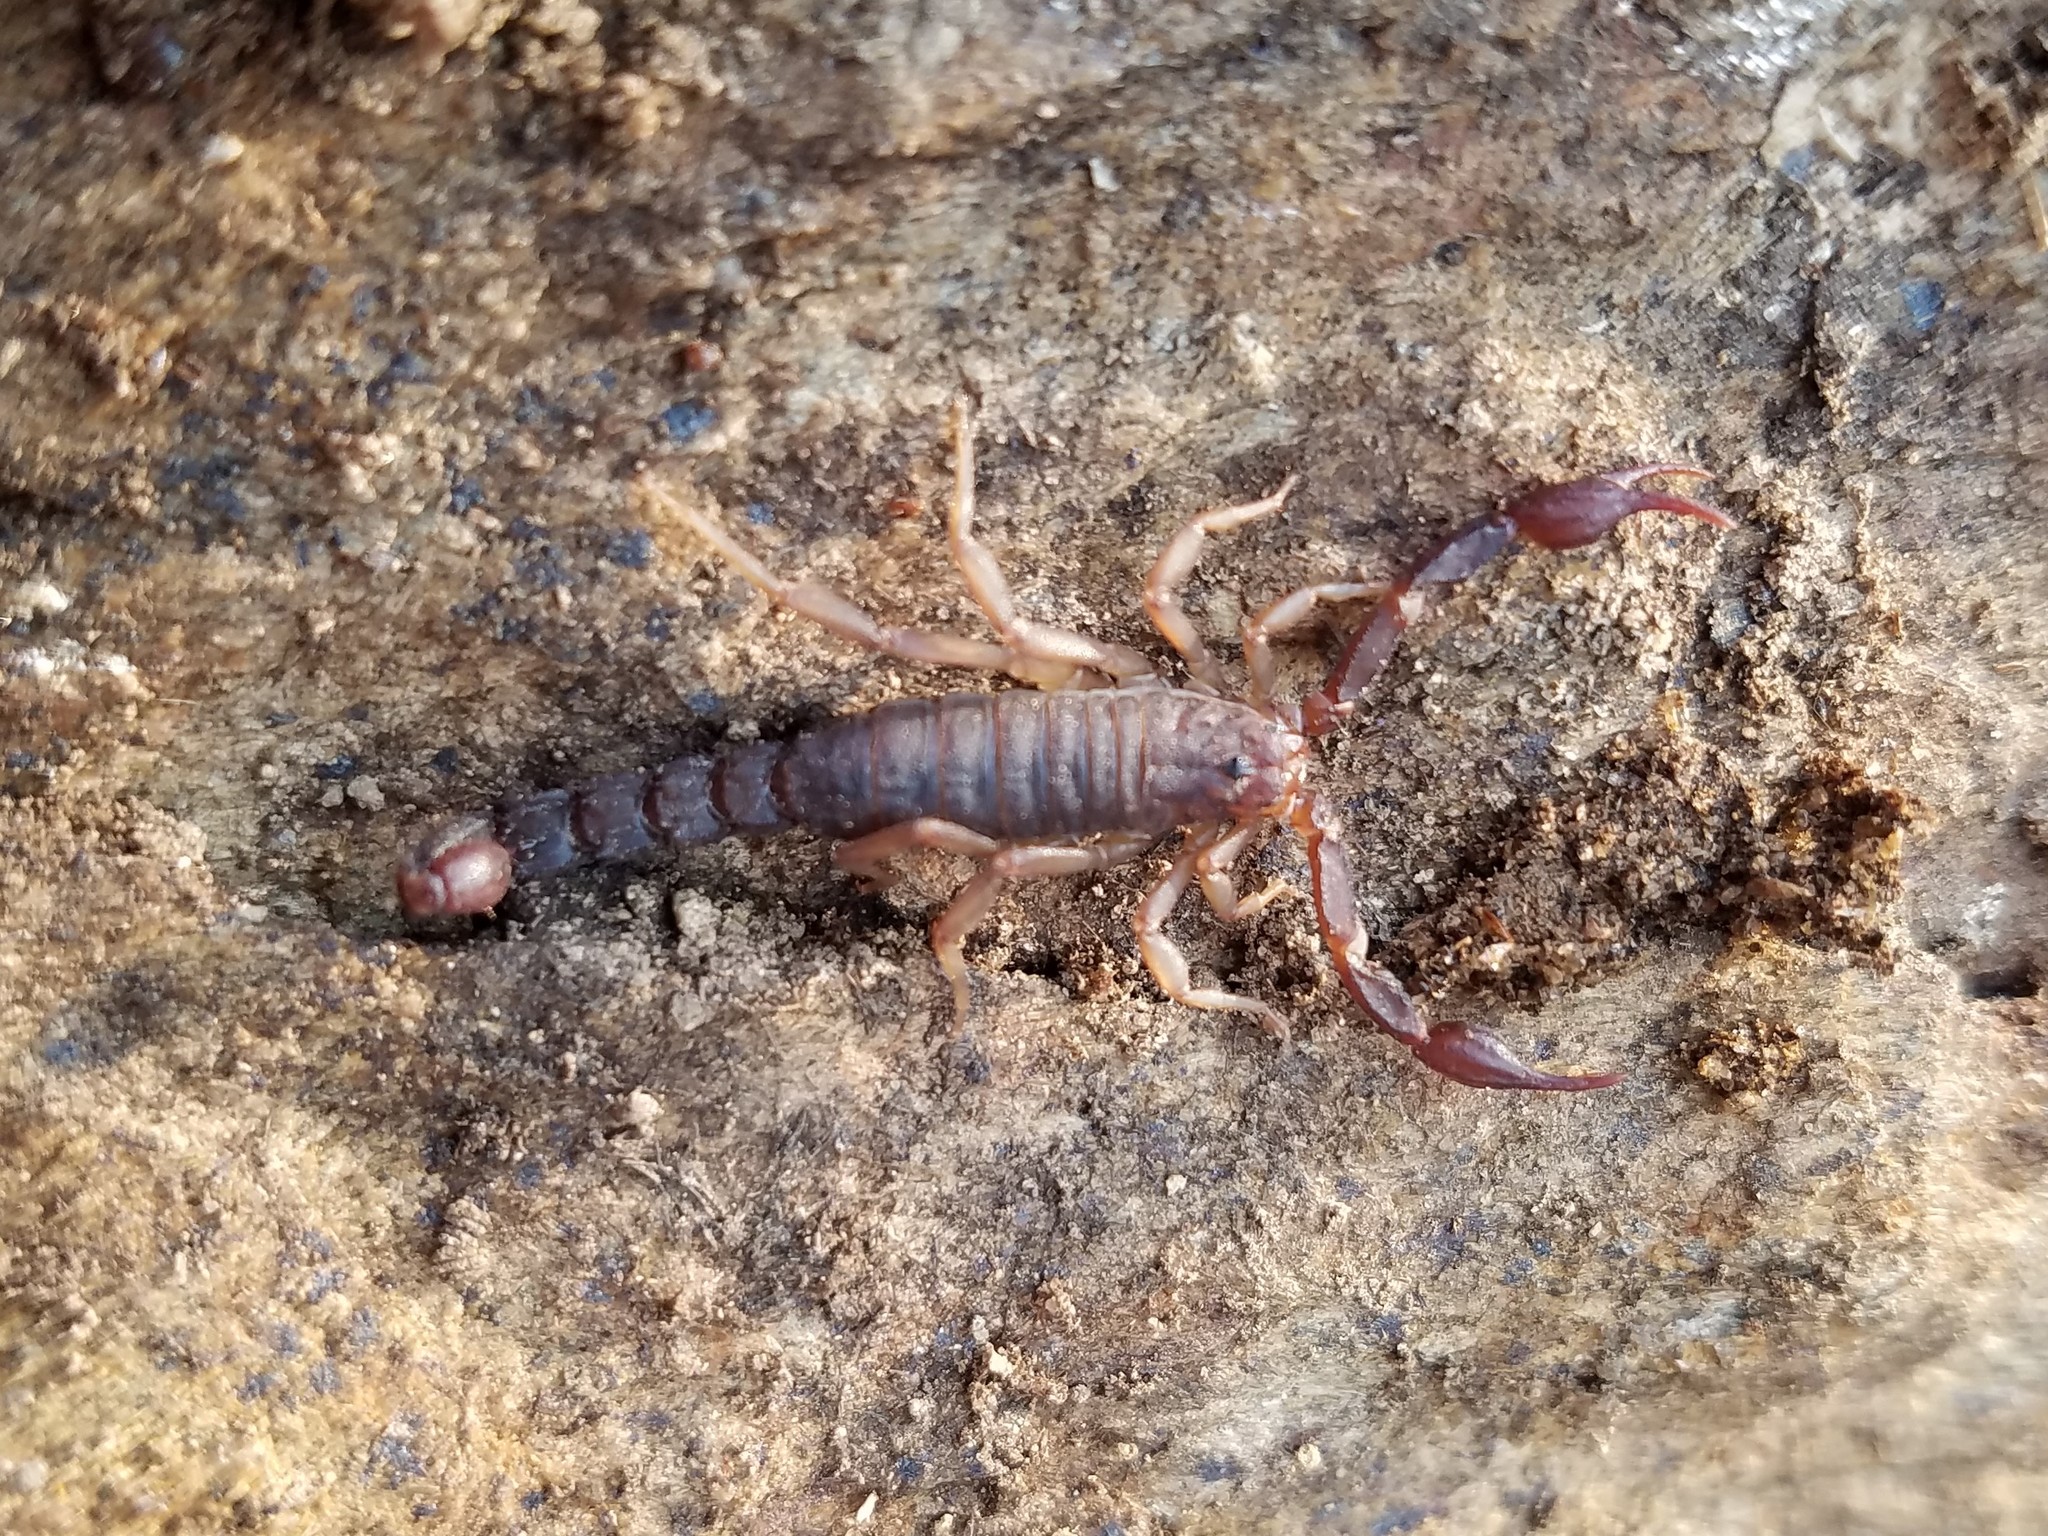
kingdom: Animalia
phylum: Arthropoda
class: Arachnida
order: Scorpiones
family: Vaejovidae
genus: Vaejovis
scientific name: Vaejovis carolinianus
